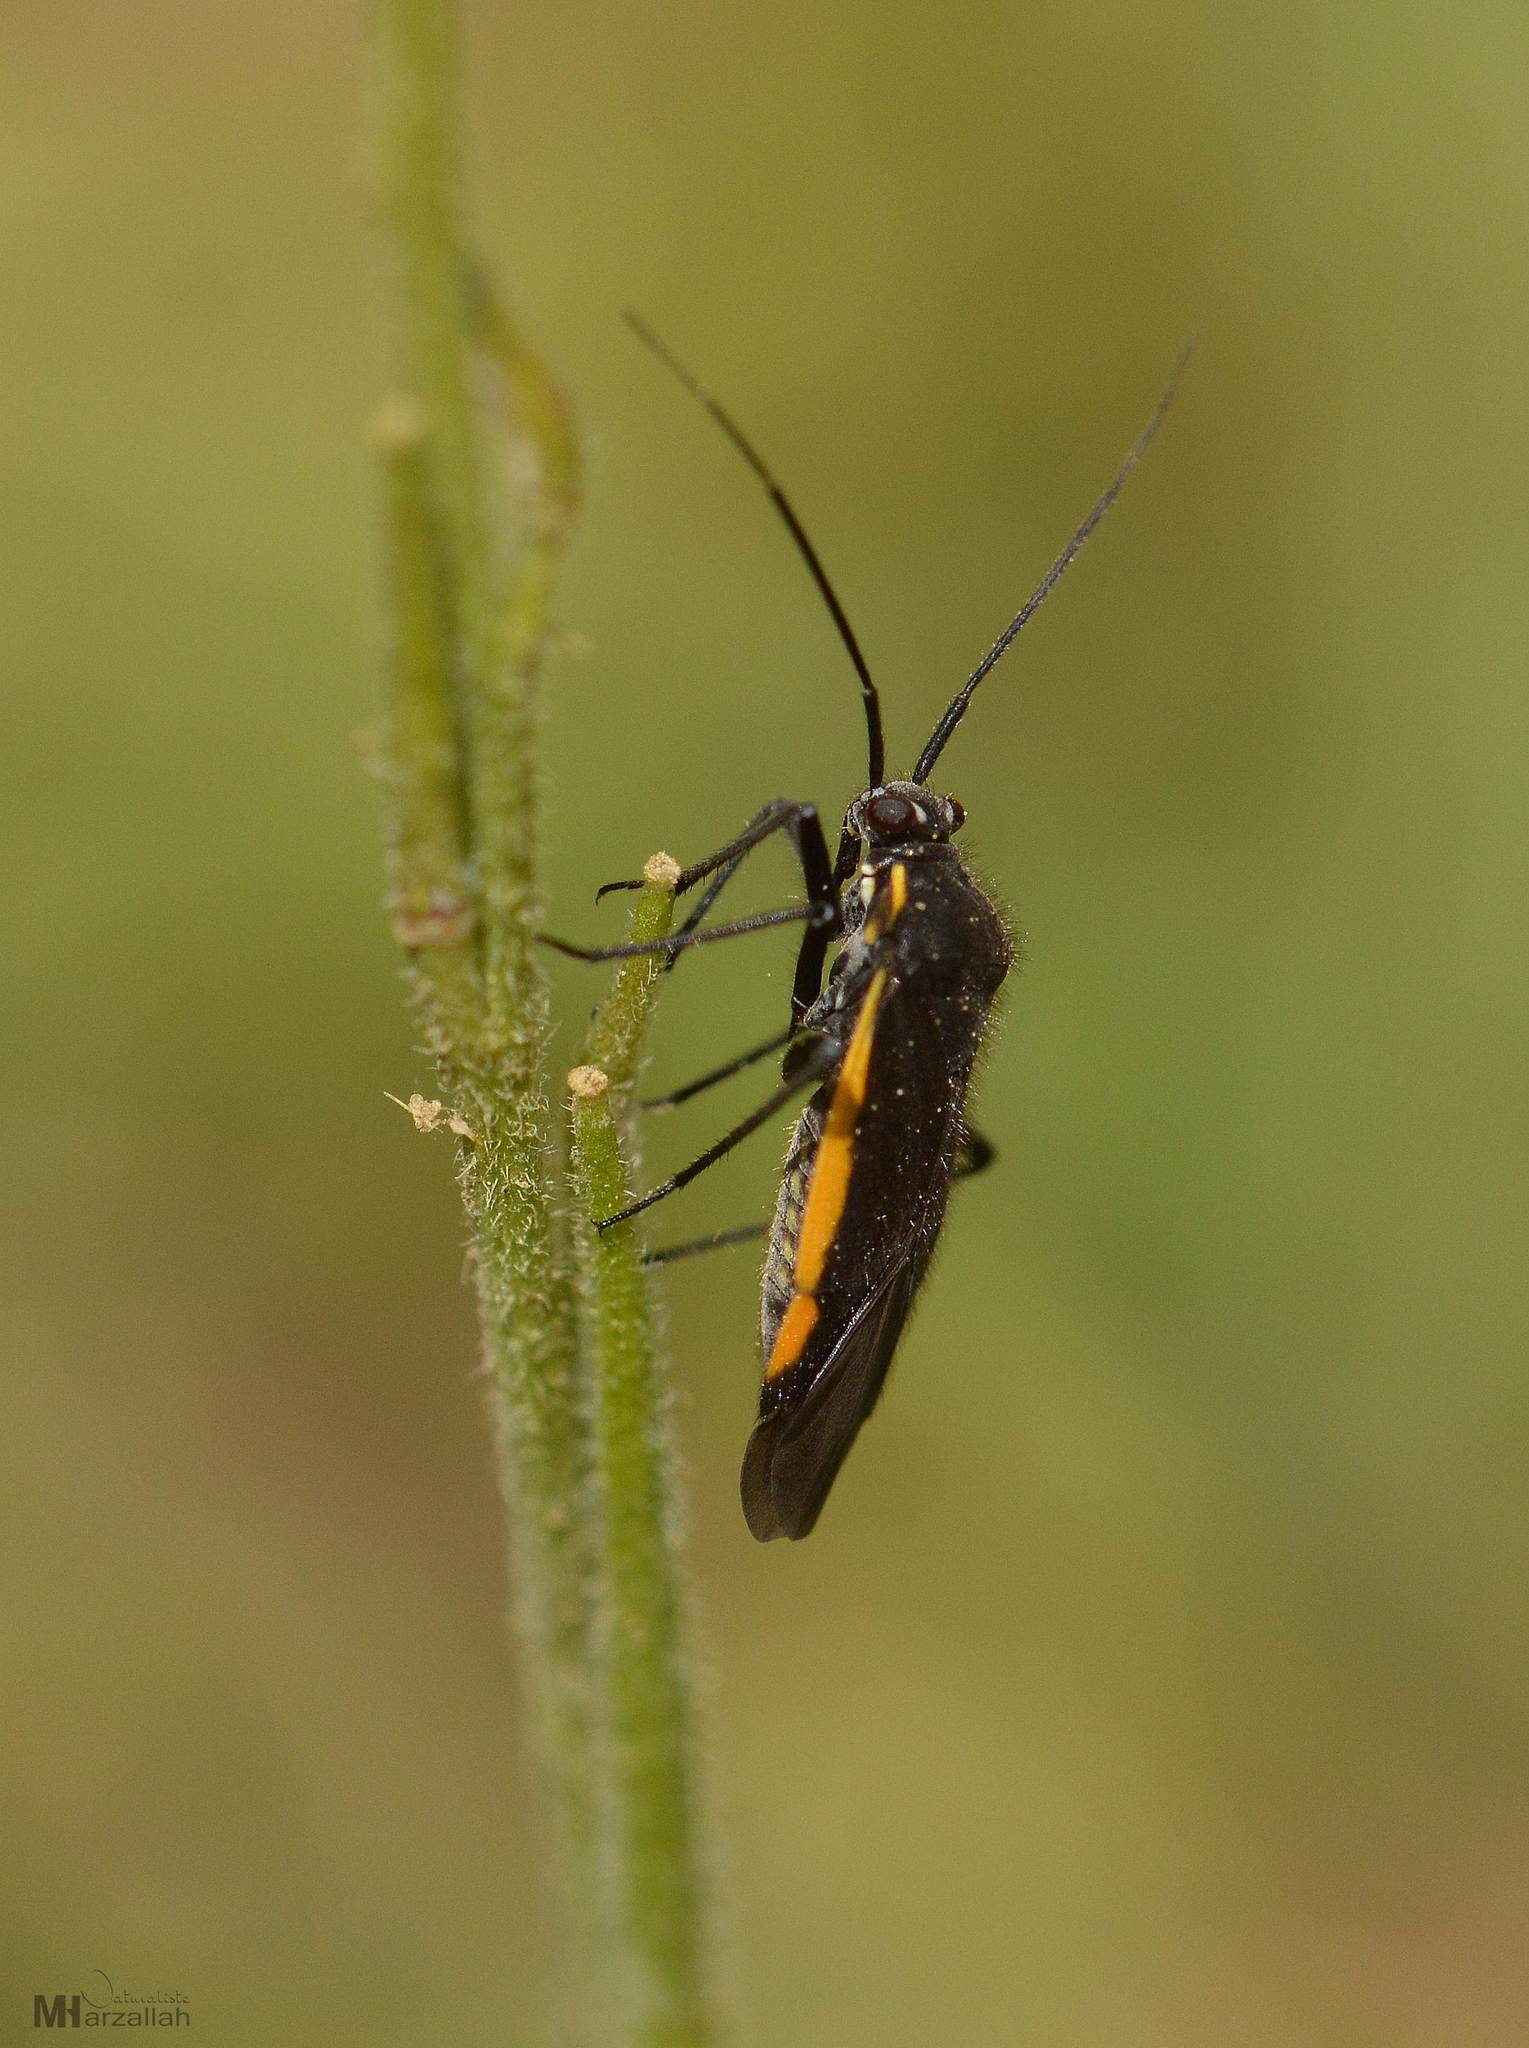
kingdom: Animalia
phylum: Arthropoda
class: Insecta
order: Hemiptera
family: Miridae
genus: Capsodes
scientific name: Capsodes pauperatus
